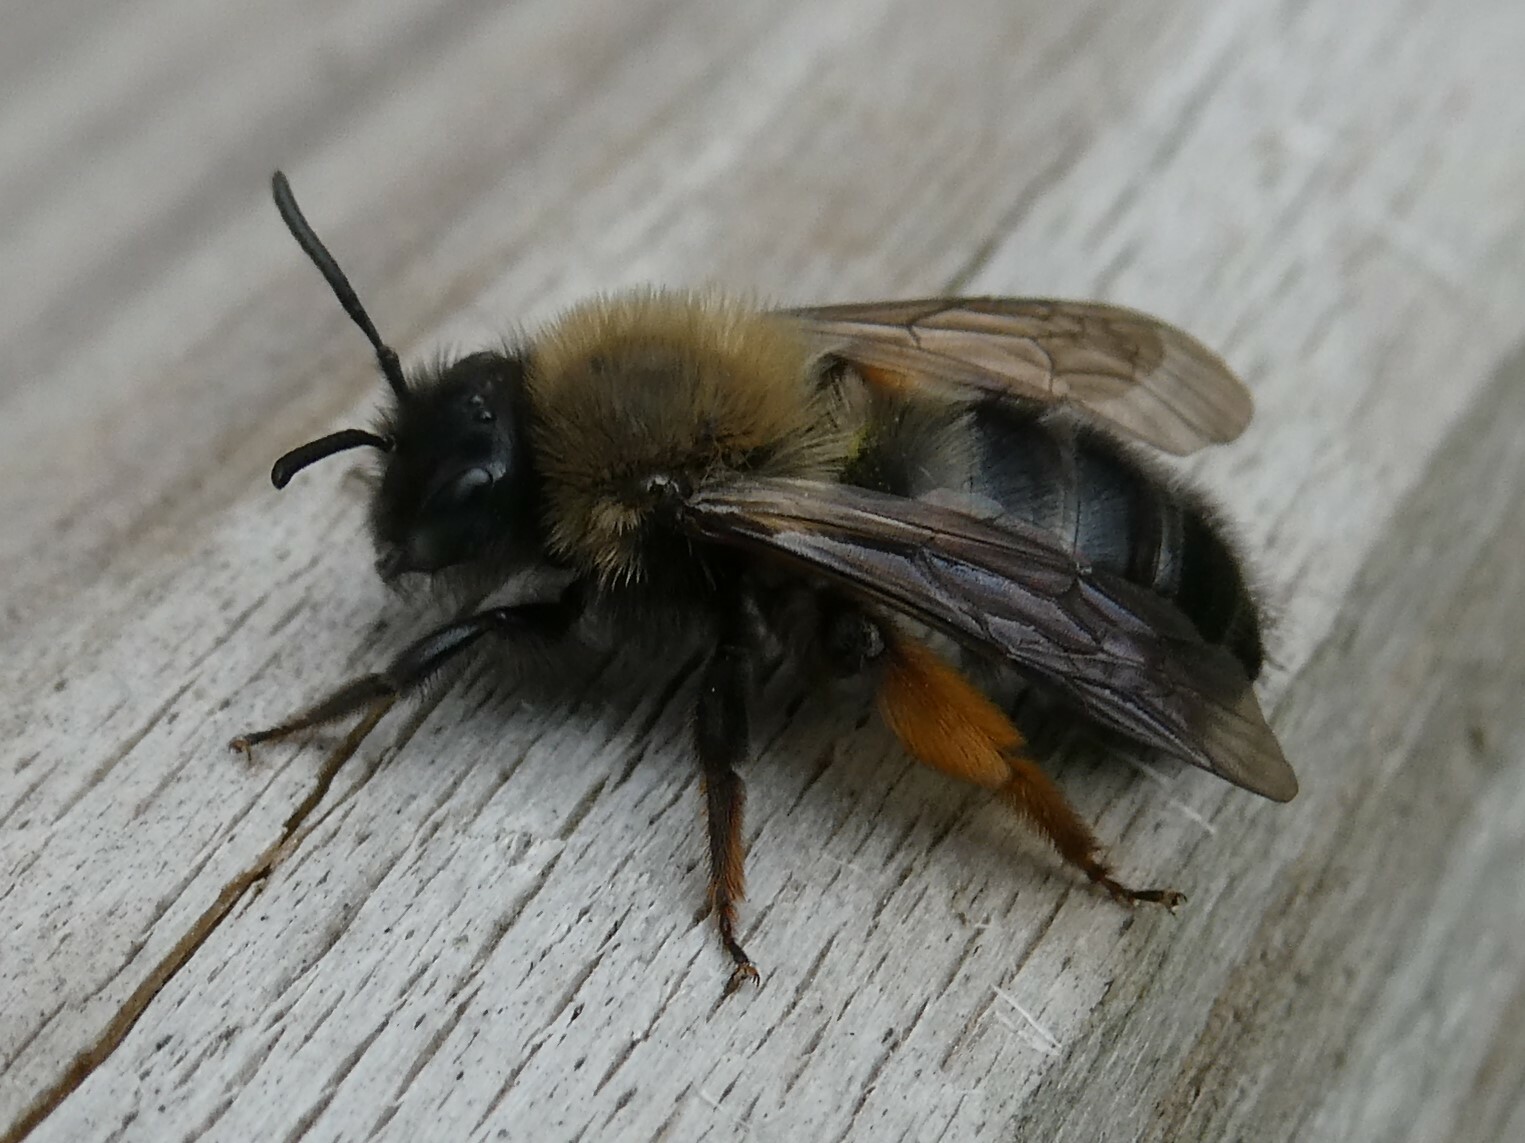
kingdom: Animalia
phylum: Arthropoda
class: Insecta
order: Hymenoptera
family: Andrenidae
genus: Andrena
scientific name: Andrena clarkella
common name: Clarke's mining bee
